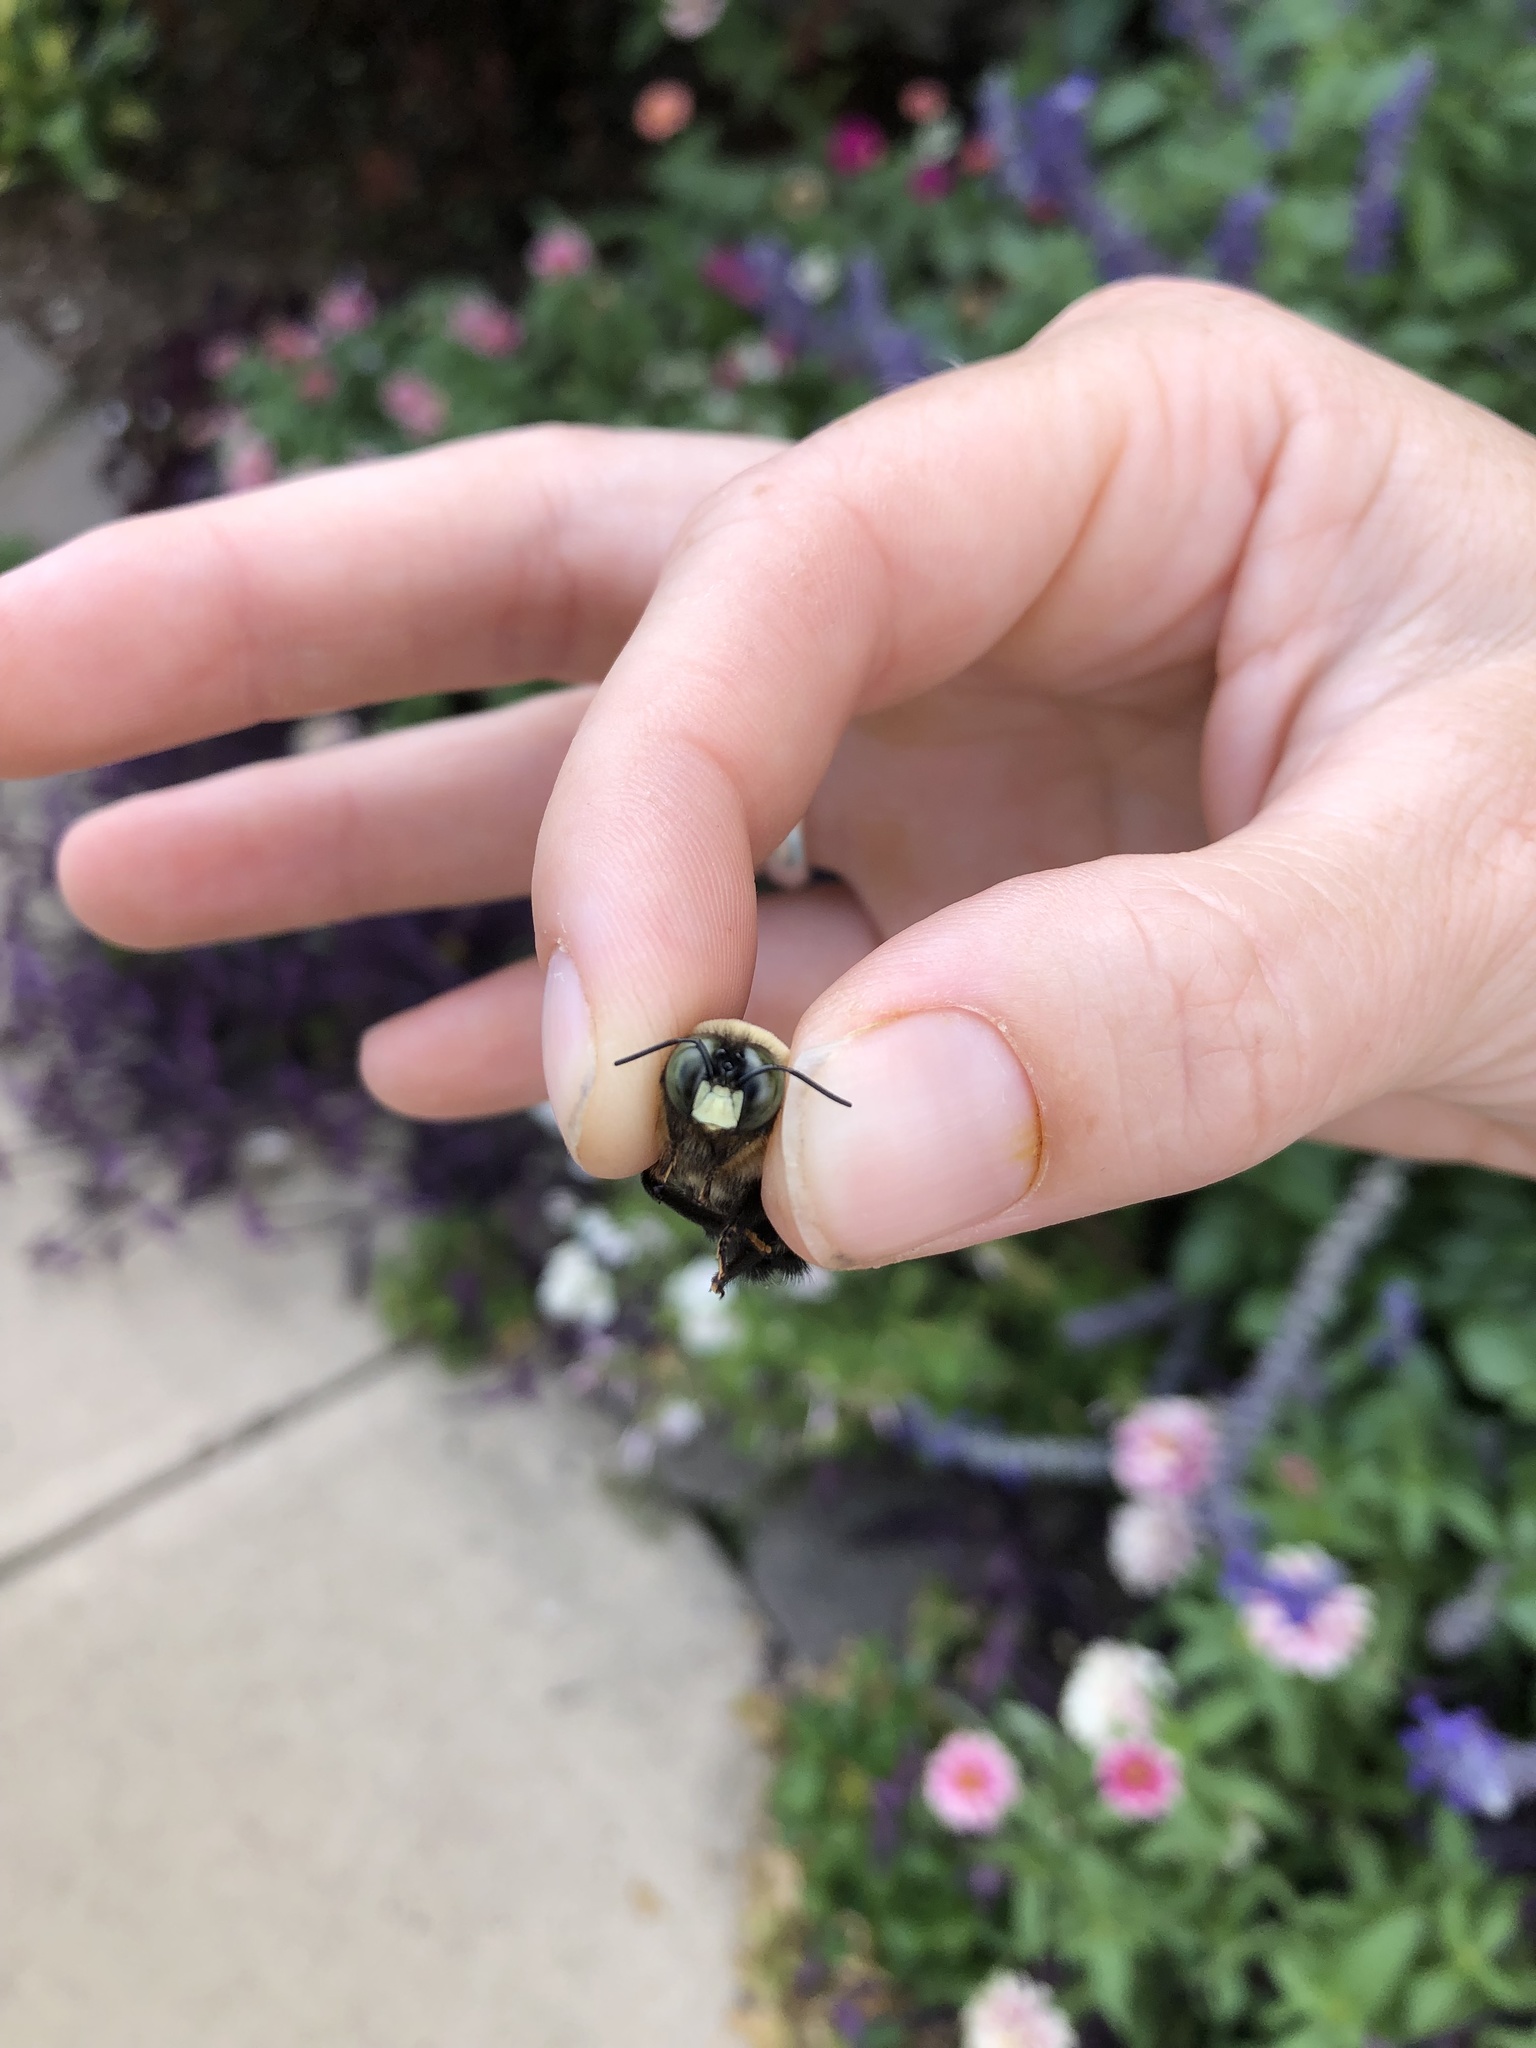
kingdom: Animalia
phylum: Arthropoda
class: Insecta
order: Hymenoptera
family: Apidae
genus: Xylocopa
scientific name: Xylocopa virginica
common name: Carpenter bee
